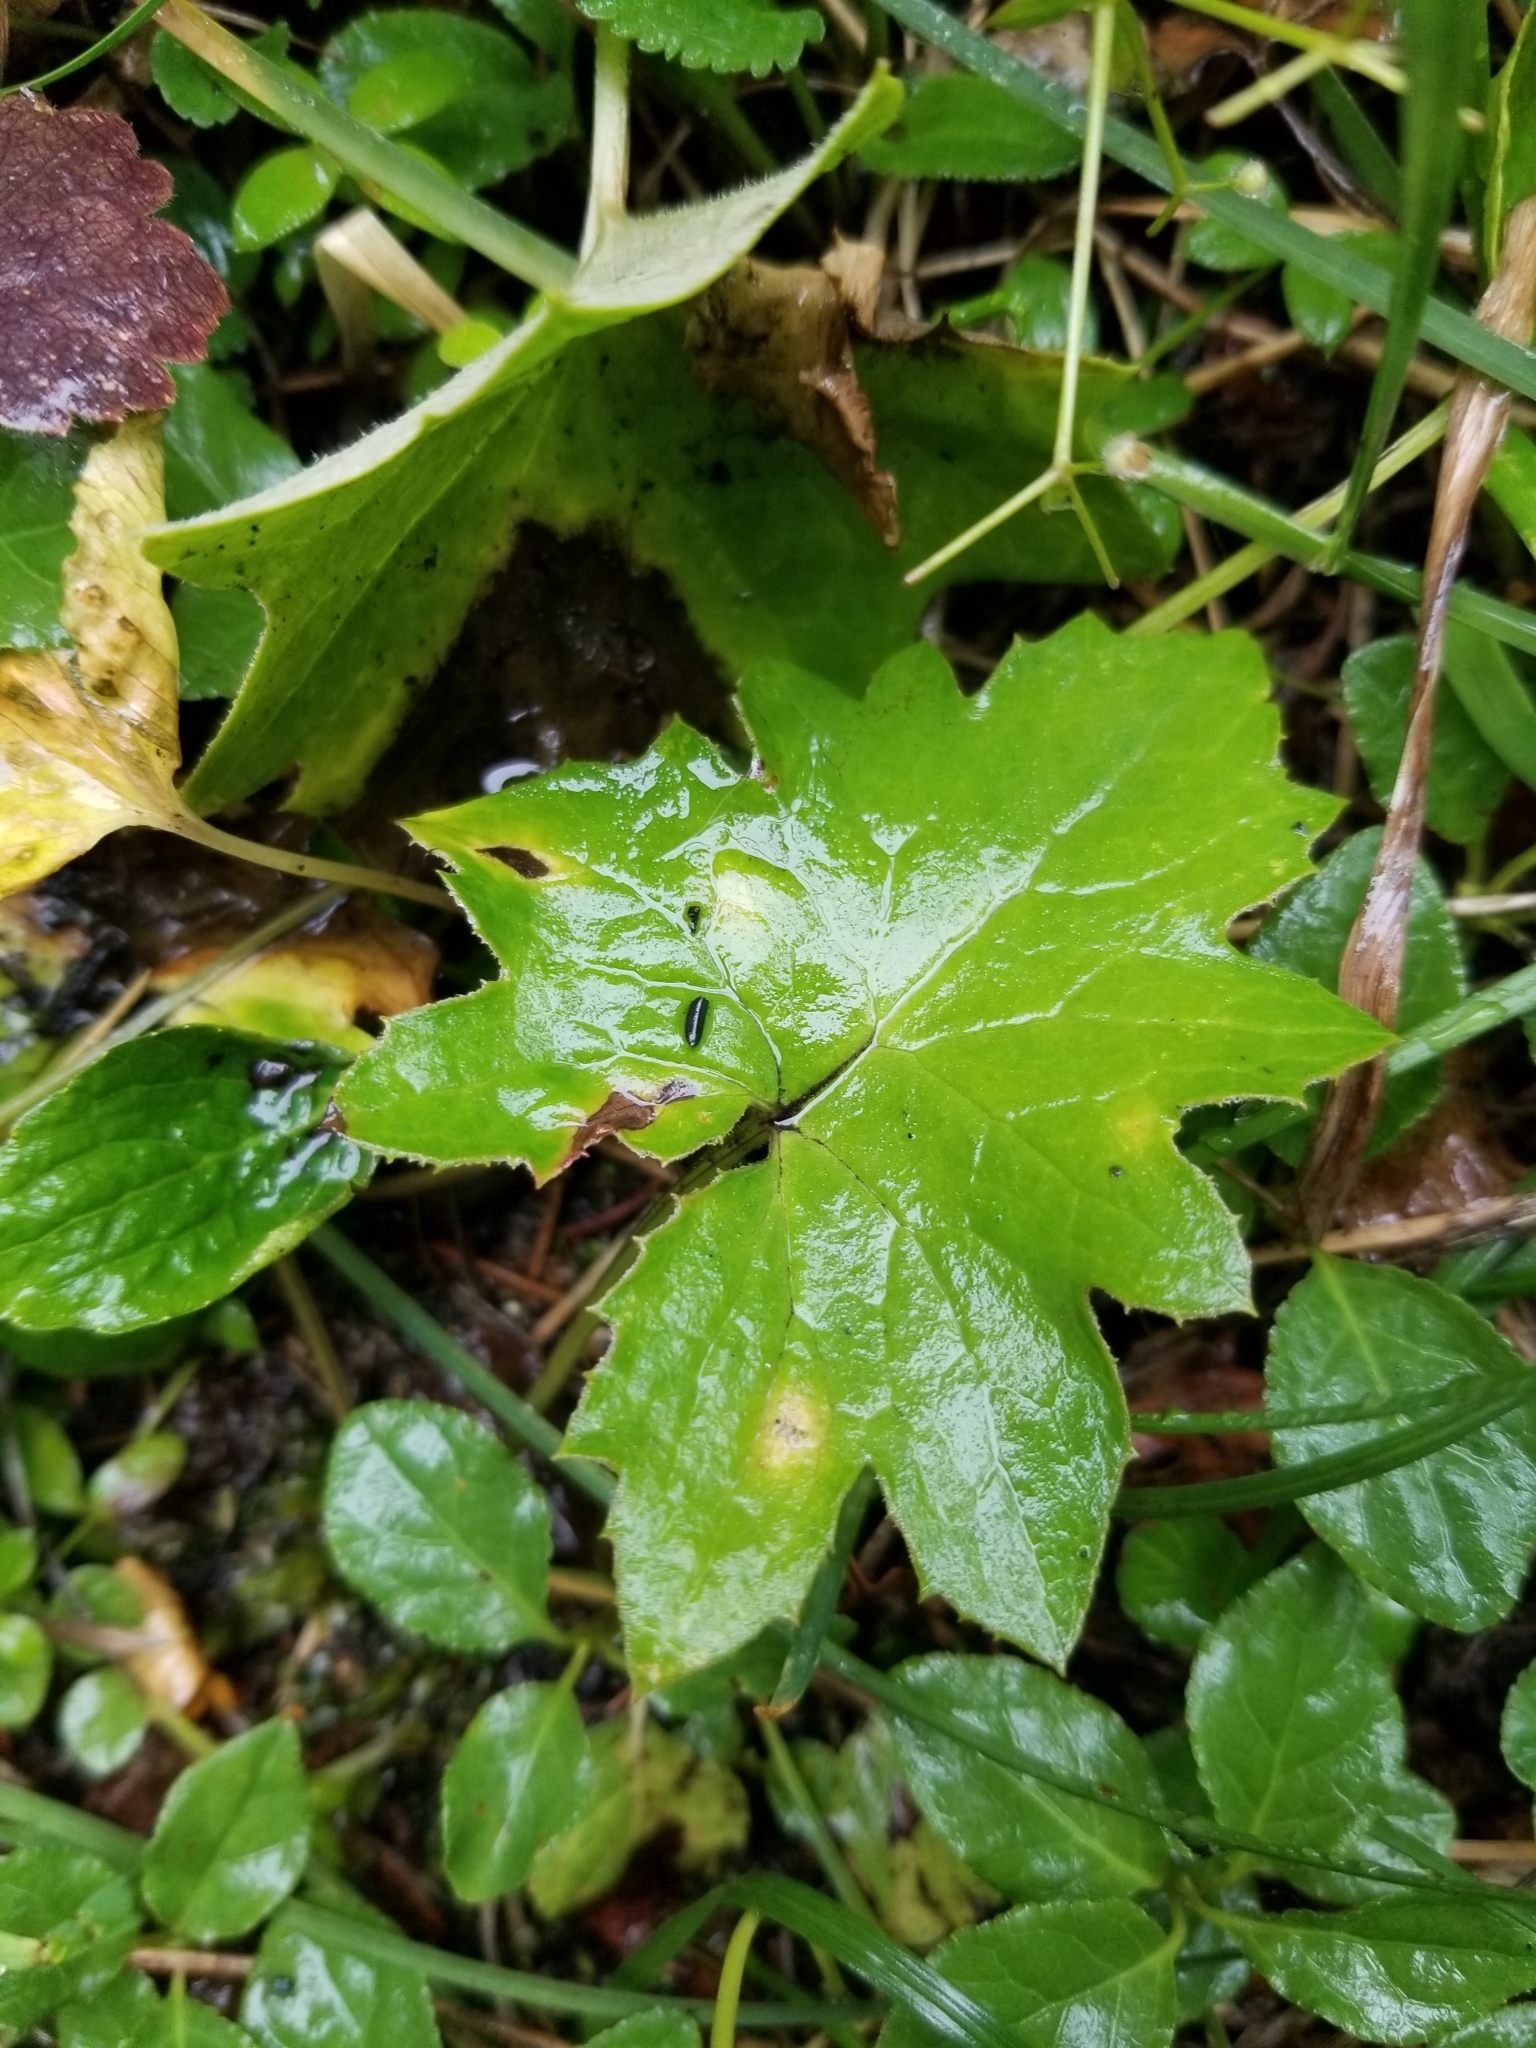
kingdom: Plantae
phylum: Tracheophyta
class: Magnoliopsida
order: Asterales
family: Asteraceae
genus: Petasites
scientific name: Petasites frigidus
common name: Arctic butterbur
